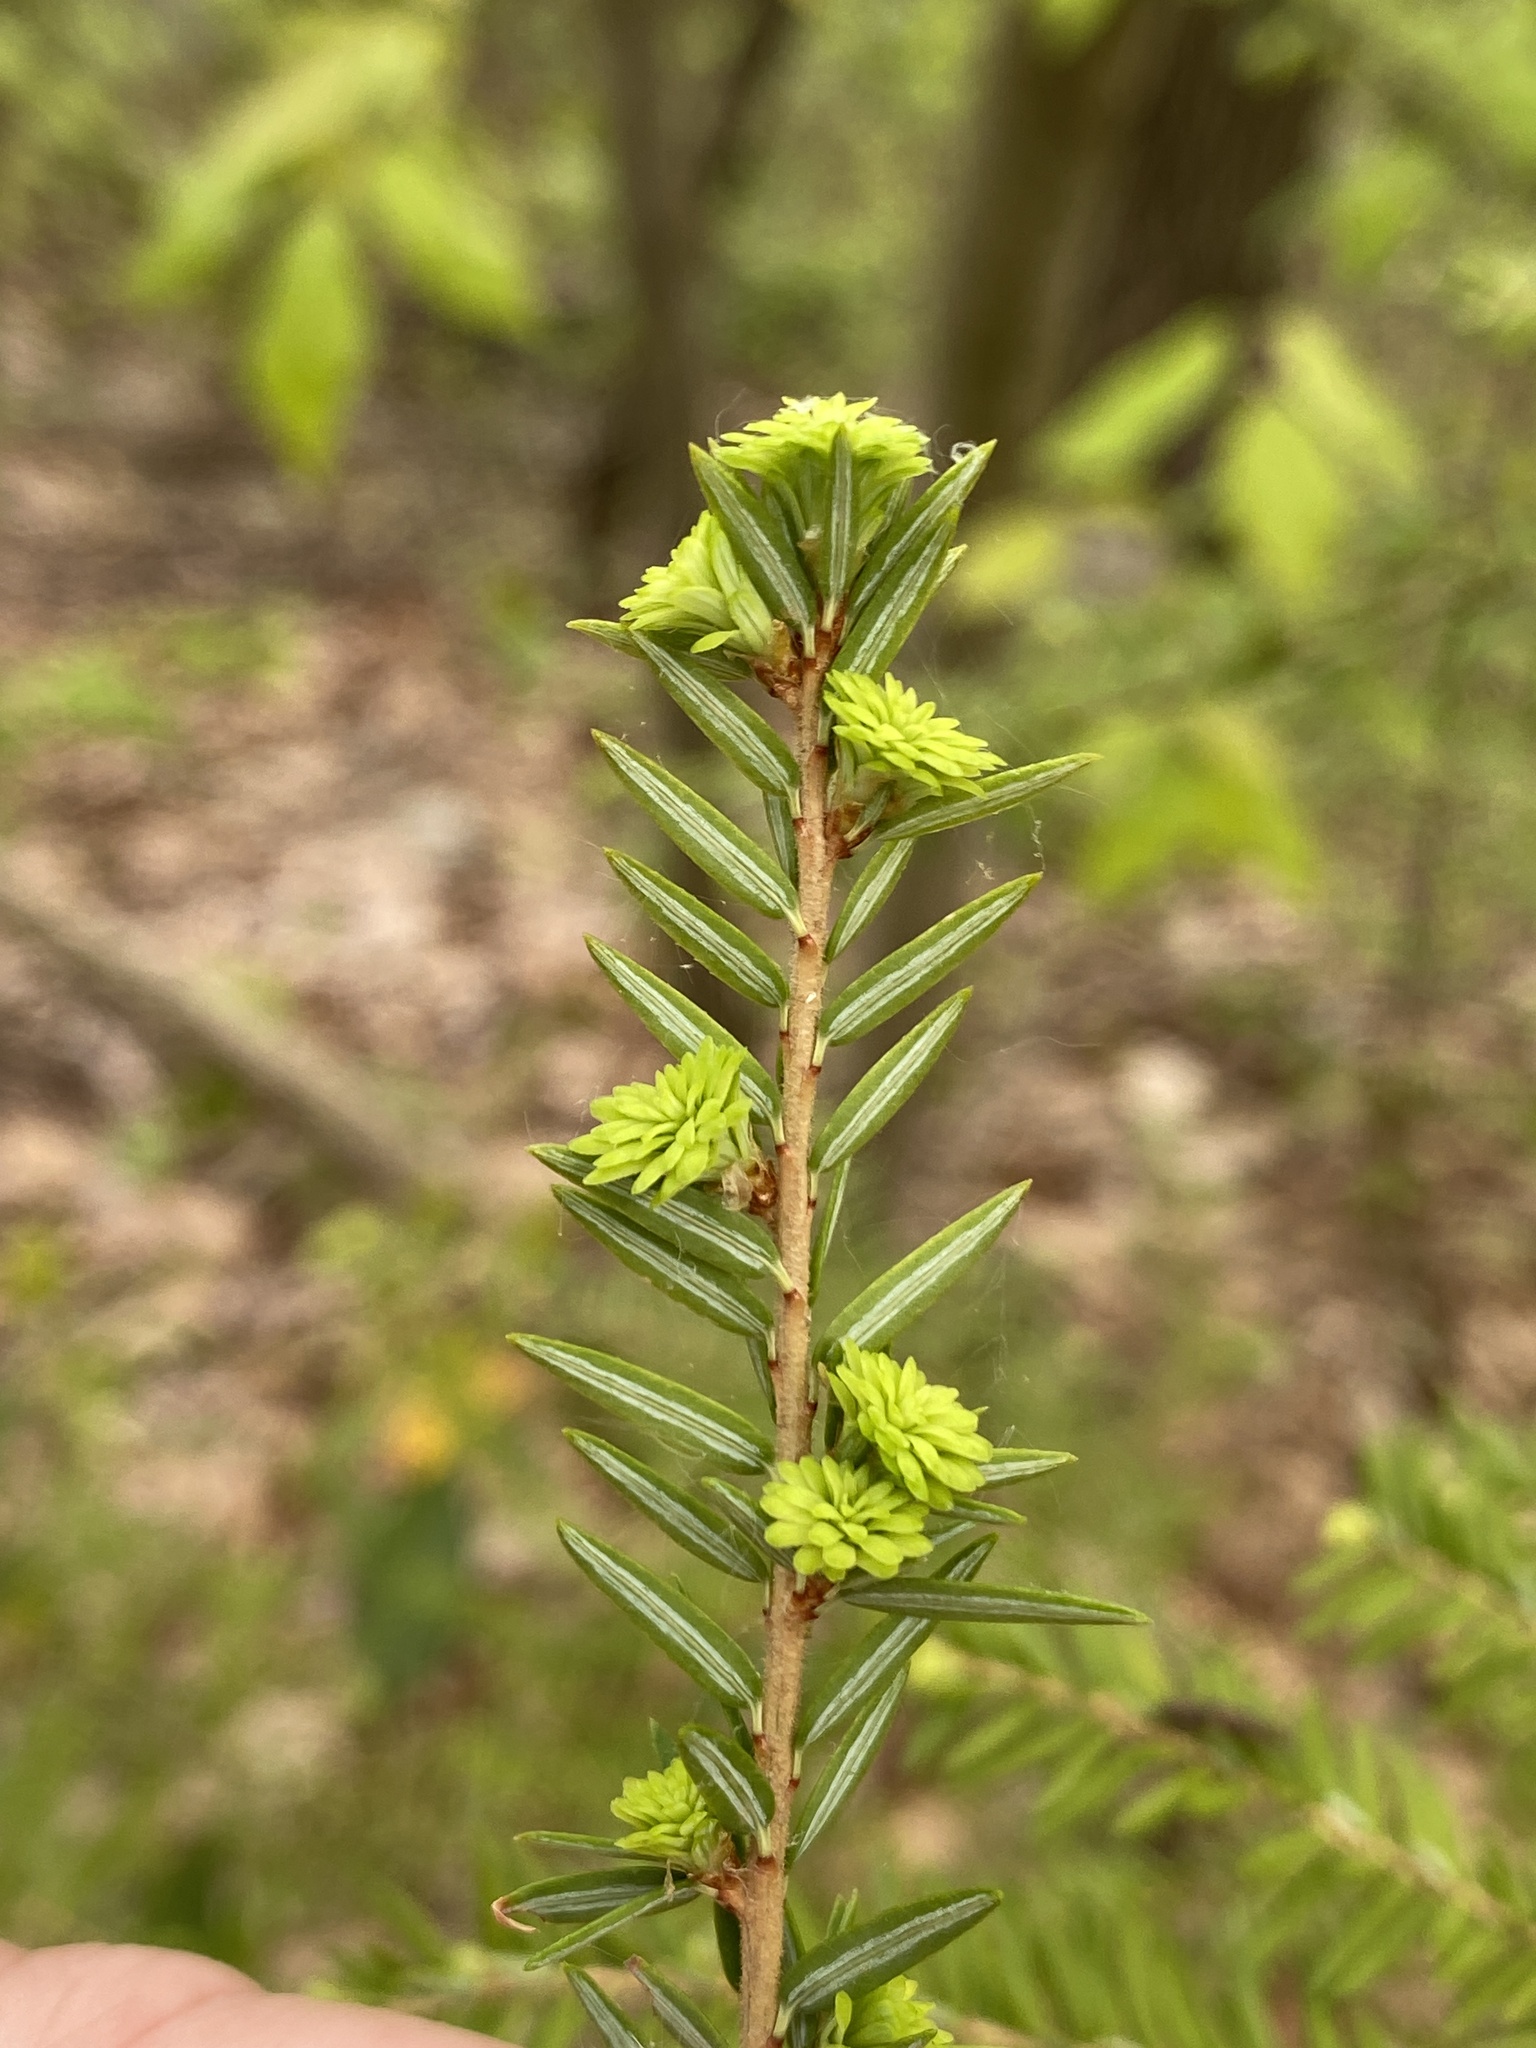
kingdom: Plantae
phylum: Tracheophyta
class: Pinopsida
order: Pinales
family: Pinaceae
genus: Tsuga
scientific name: Tsuga canadensis
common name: Eastern hemlock
